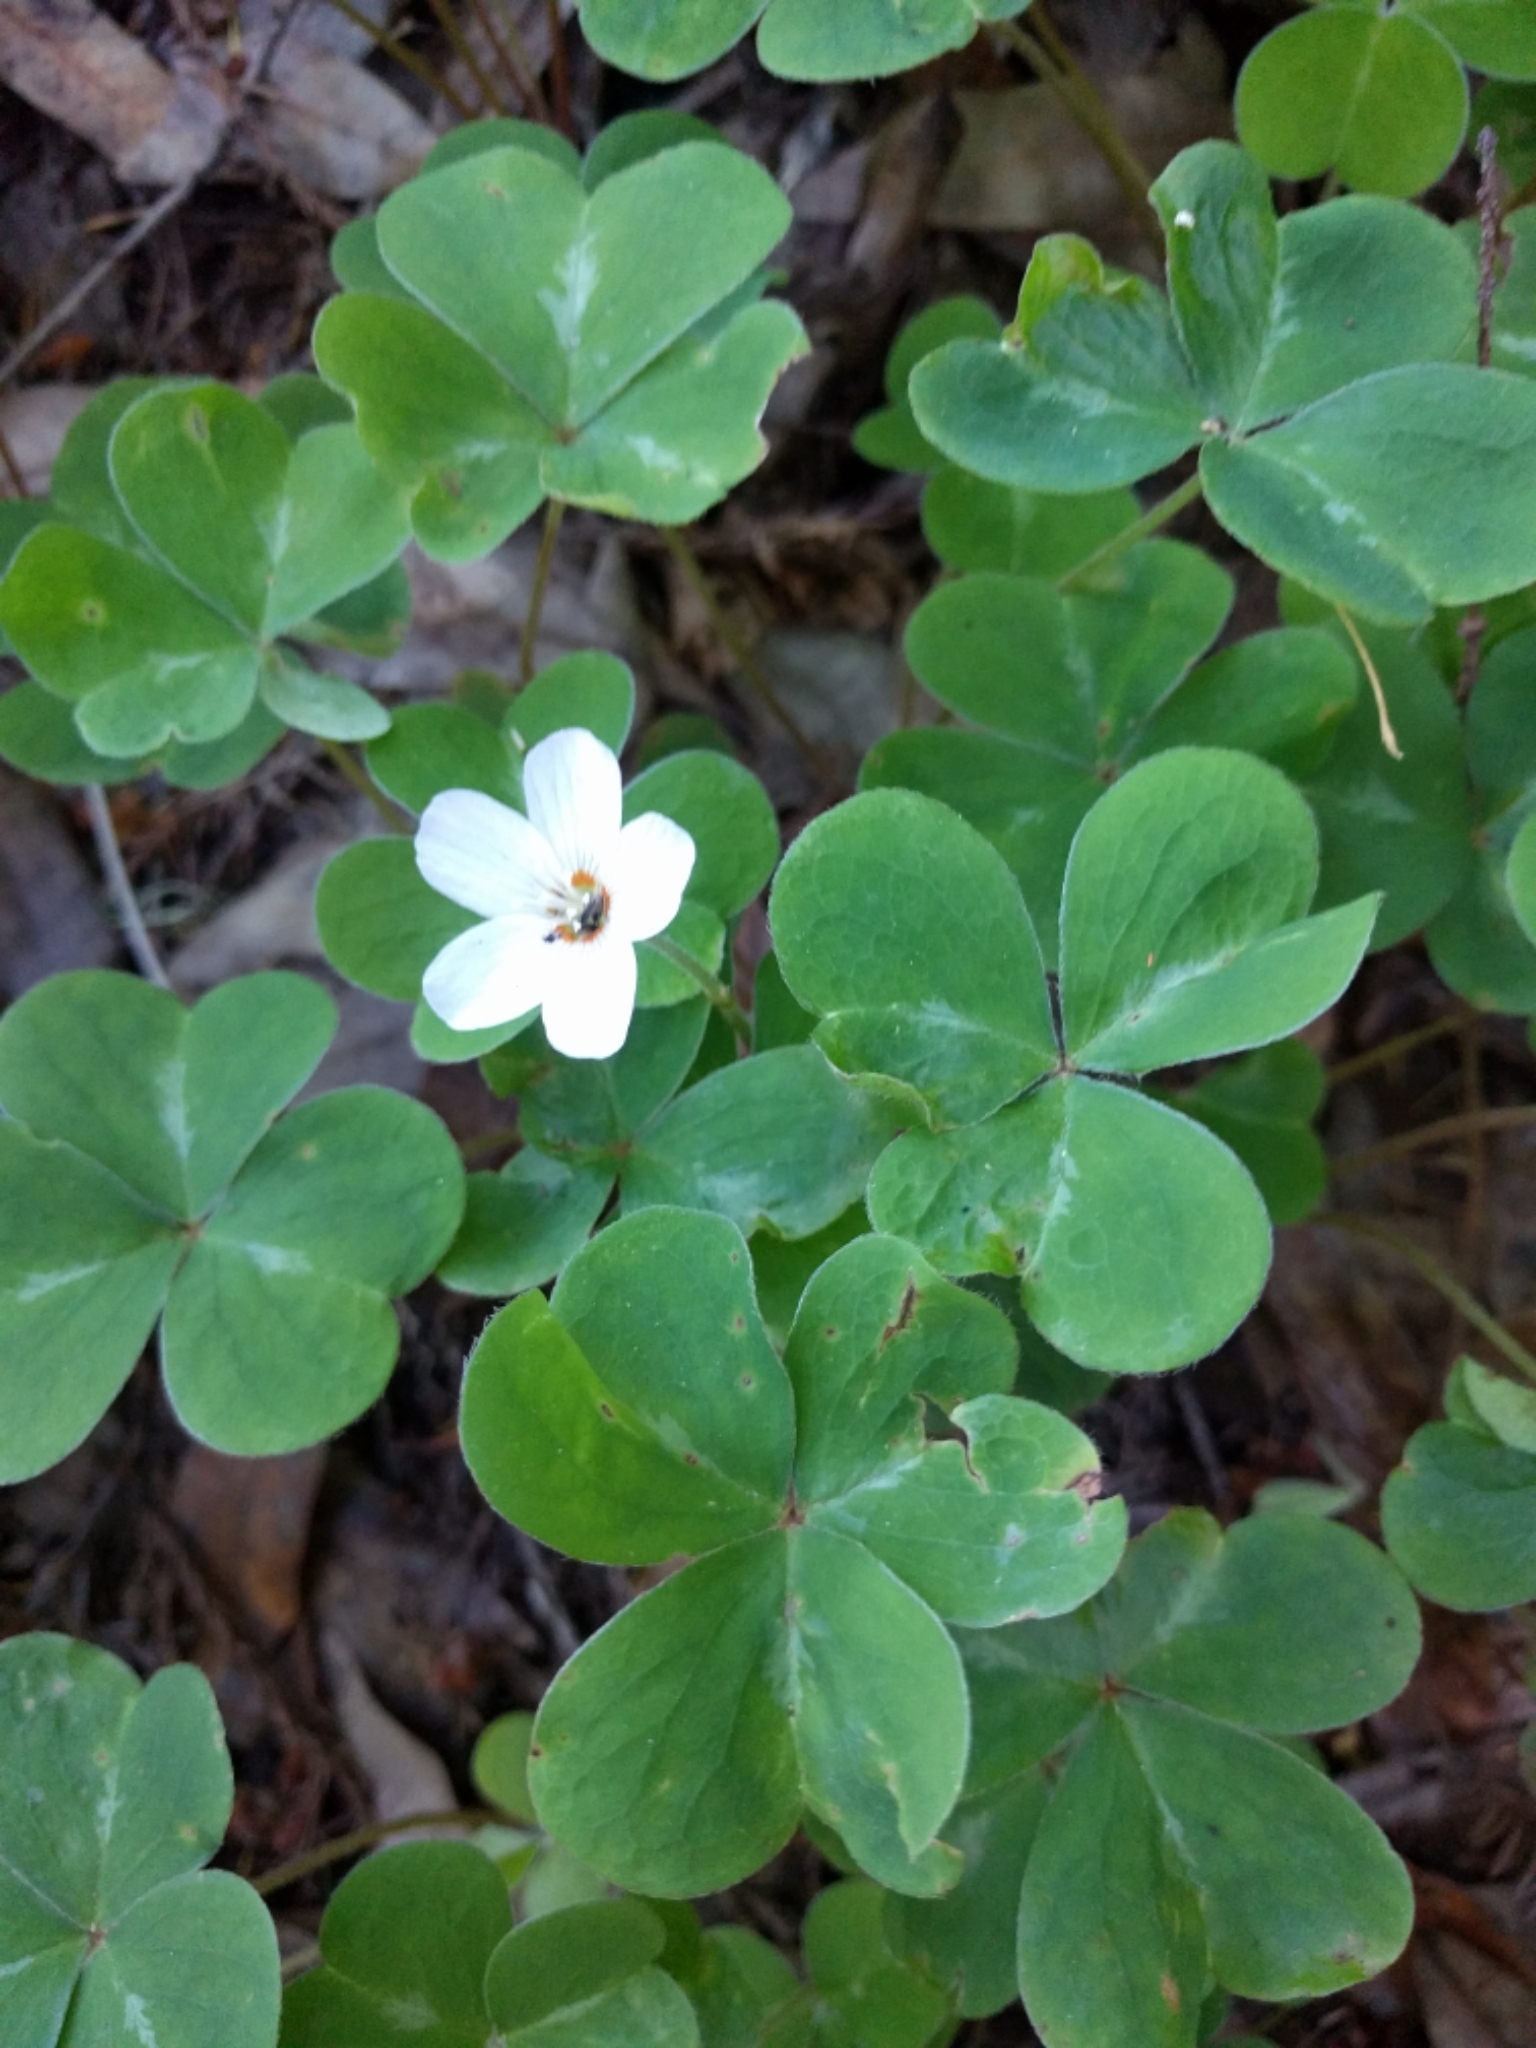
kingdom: Plantae
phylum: Tracheophyta
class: Magnoliopsida
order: Oxalidales
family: Oxalidaceae
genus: Oxalis
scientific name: Oxalis oregana
